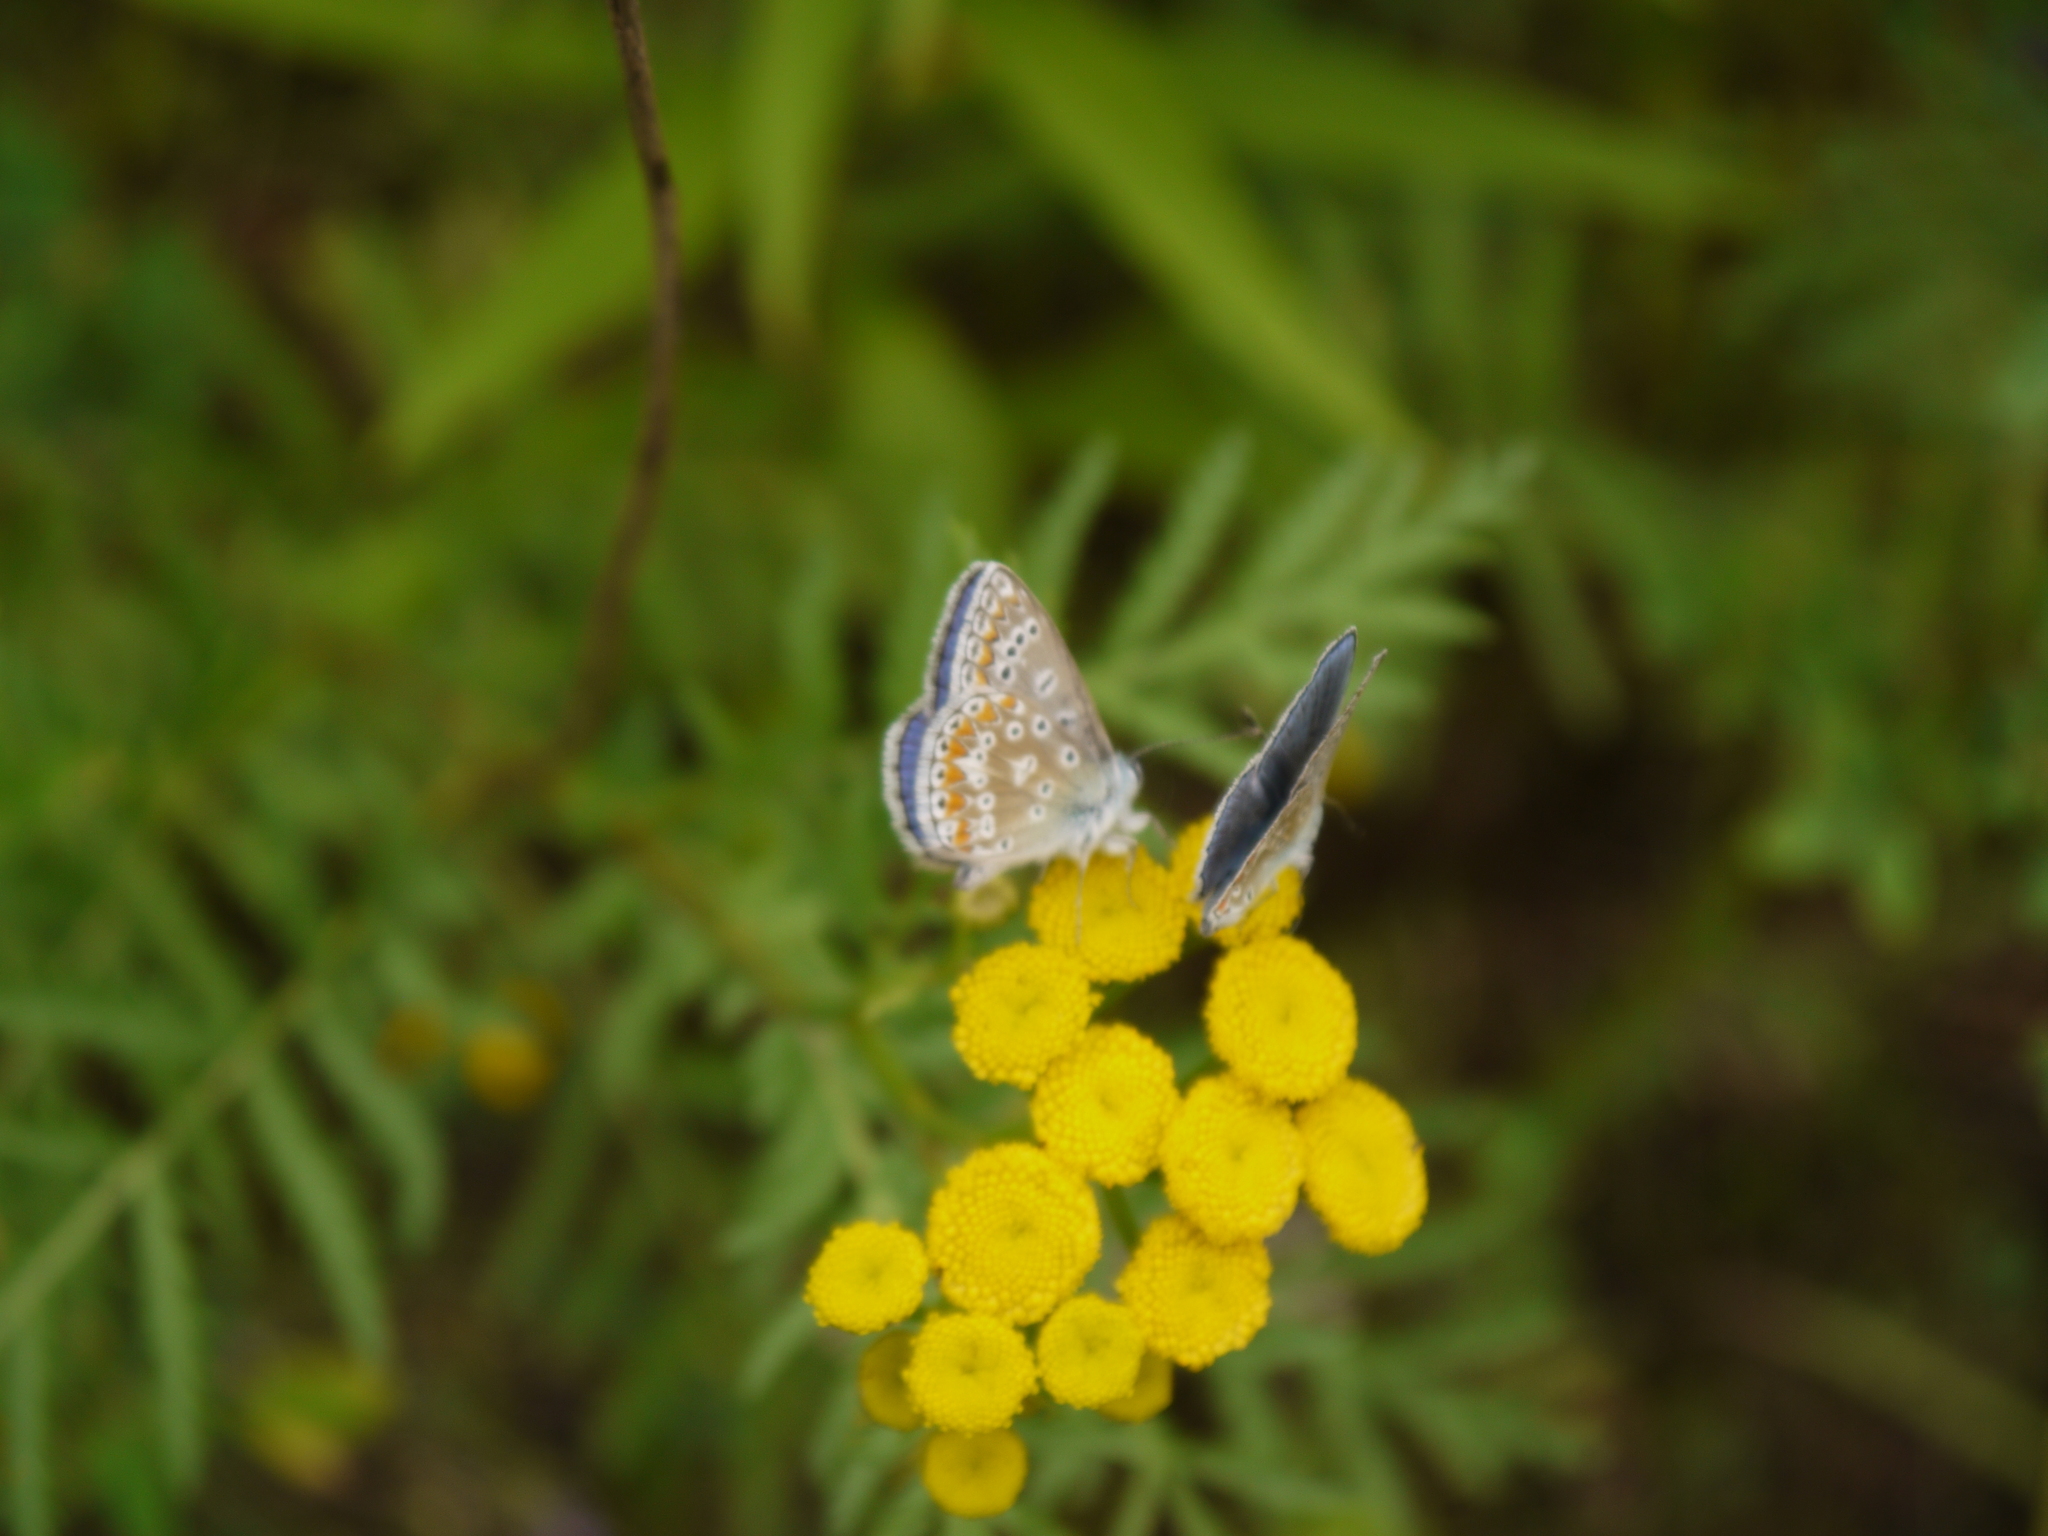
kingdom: Animalia
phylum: Arthropoda
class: Insecta
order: Lepidoptera
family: Lycaenidae
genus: Polyommatus
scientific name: Polyommatus icarus
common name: Common blue
